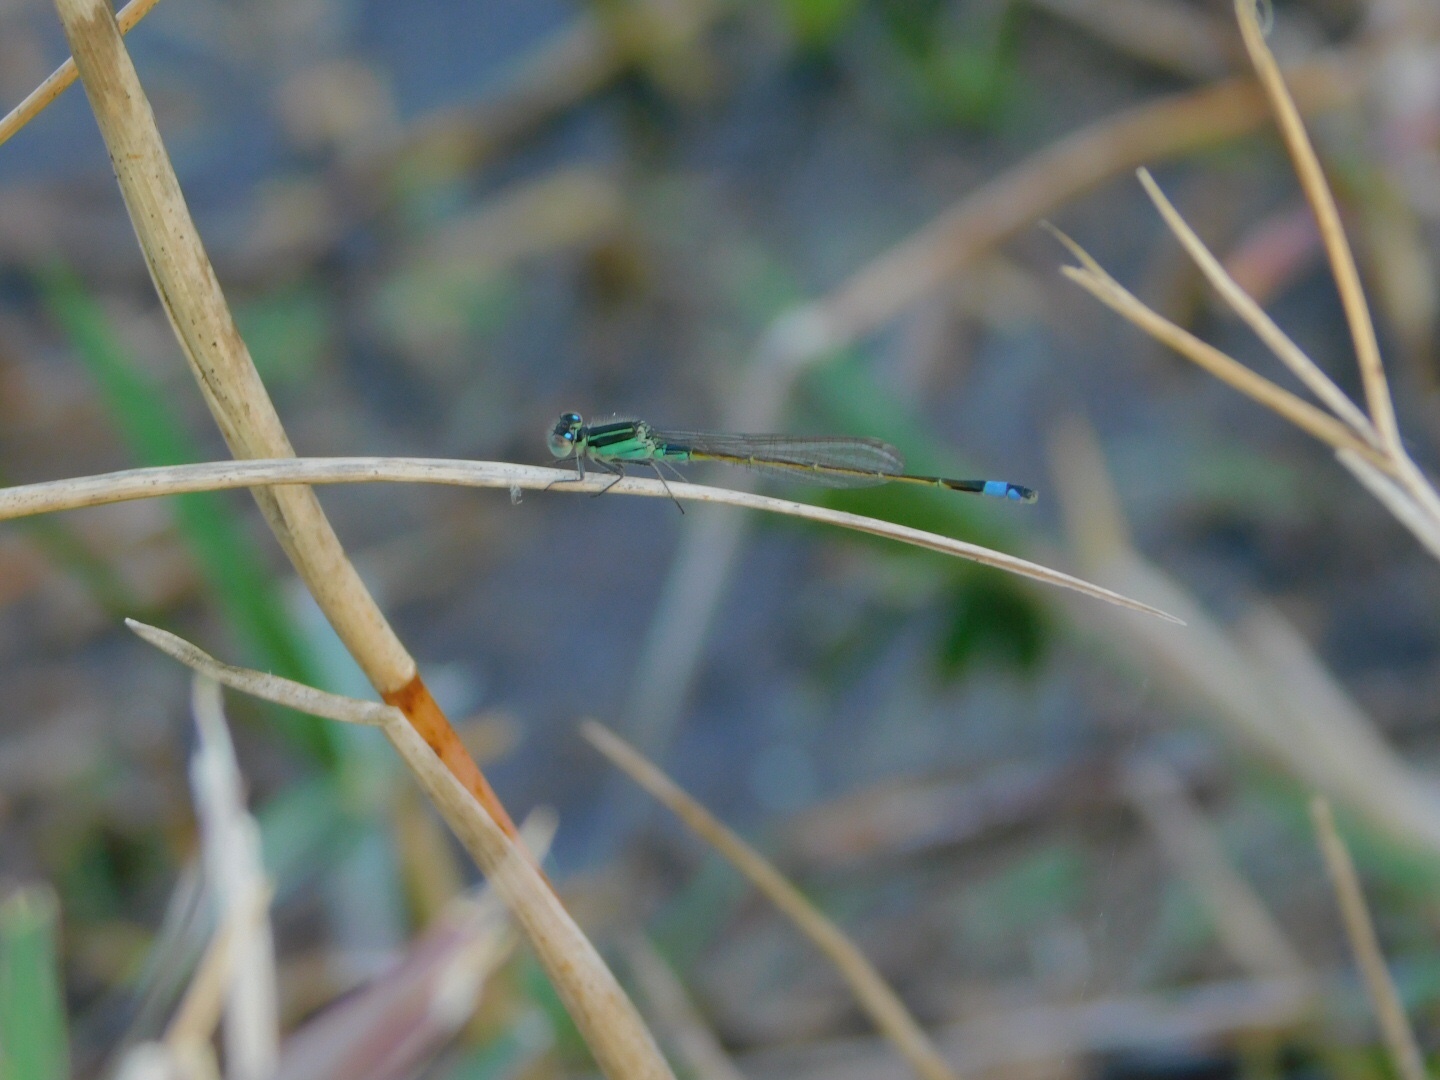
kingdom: Animalia
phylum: Arthropoda
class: Insecta
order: Odonata
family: Coenagrionidae
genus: Ischnura
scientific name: Ischnura ramburii
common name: Rambur's forktail
